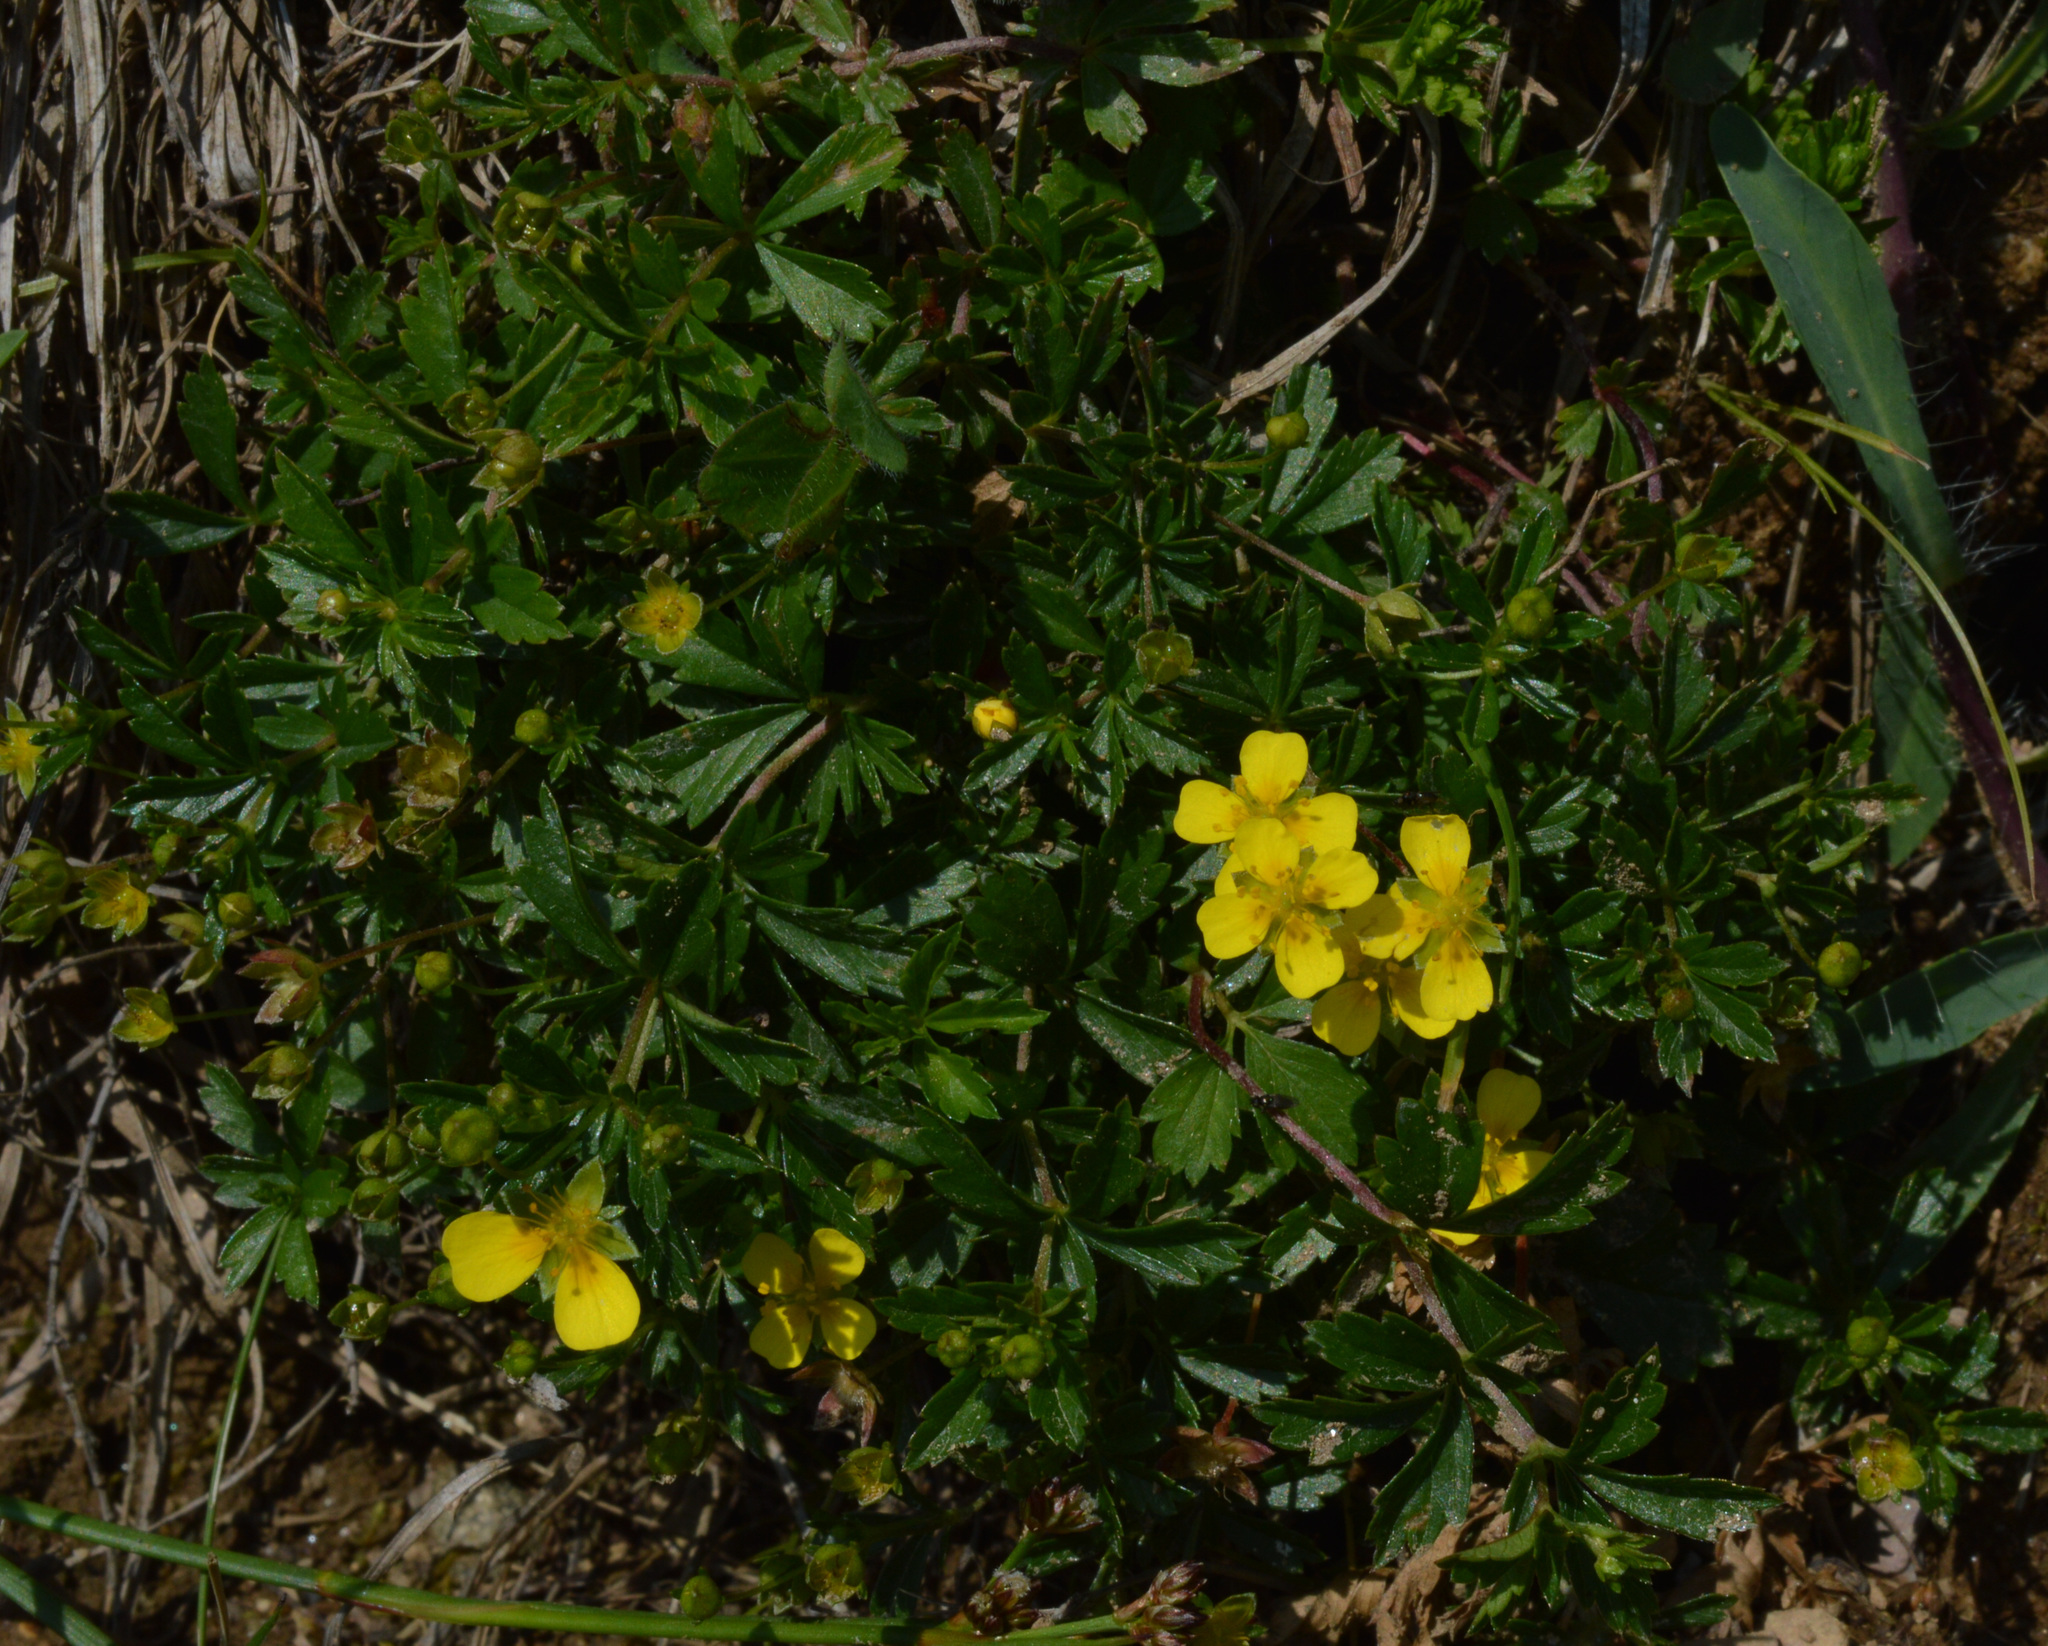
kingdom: Plantae
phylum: Tracheophyta
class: Magnoliopsida
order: Rosales
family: Rosaceae
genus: Potentilla
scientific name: Potentilla erecta
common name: Tormentil
